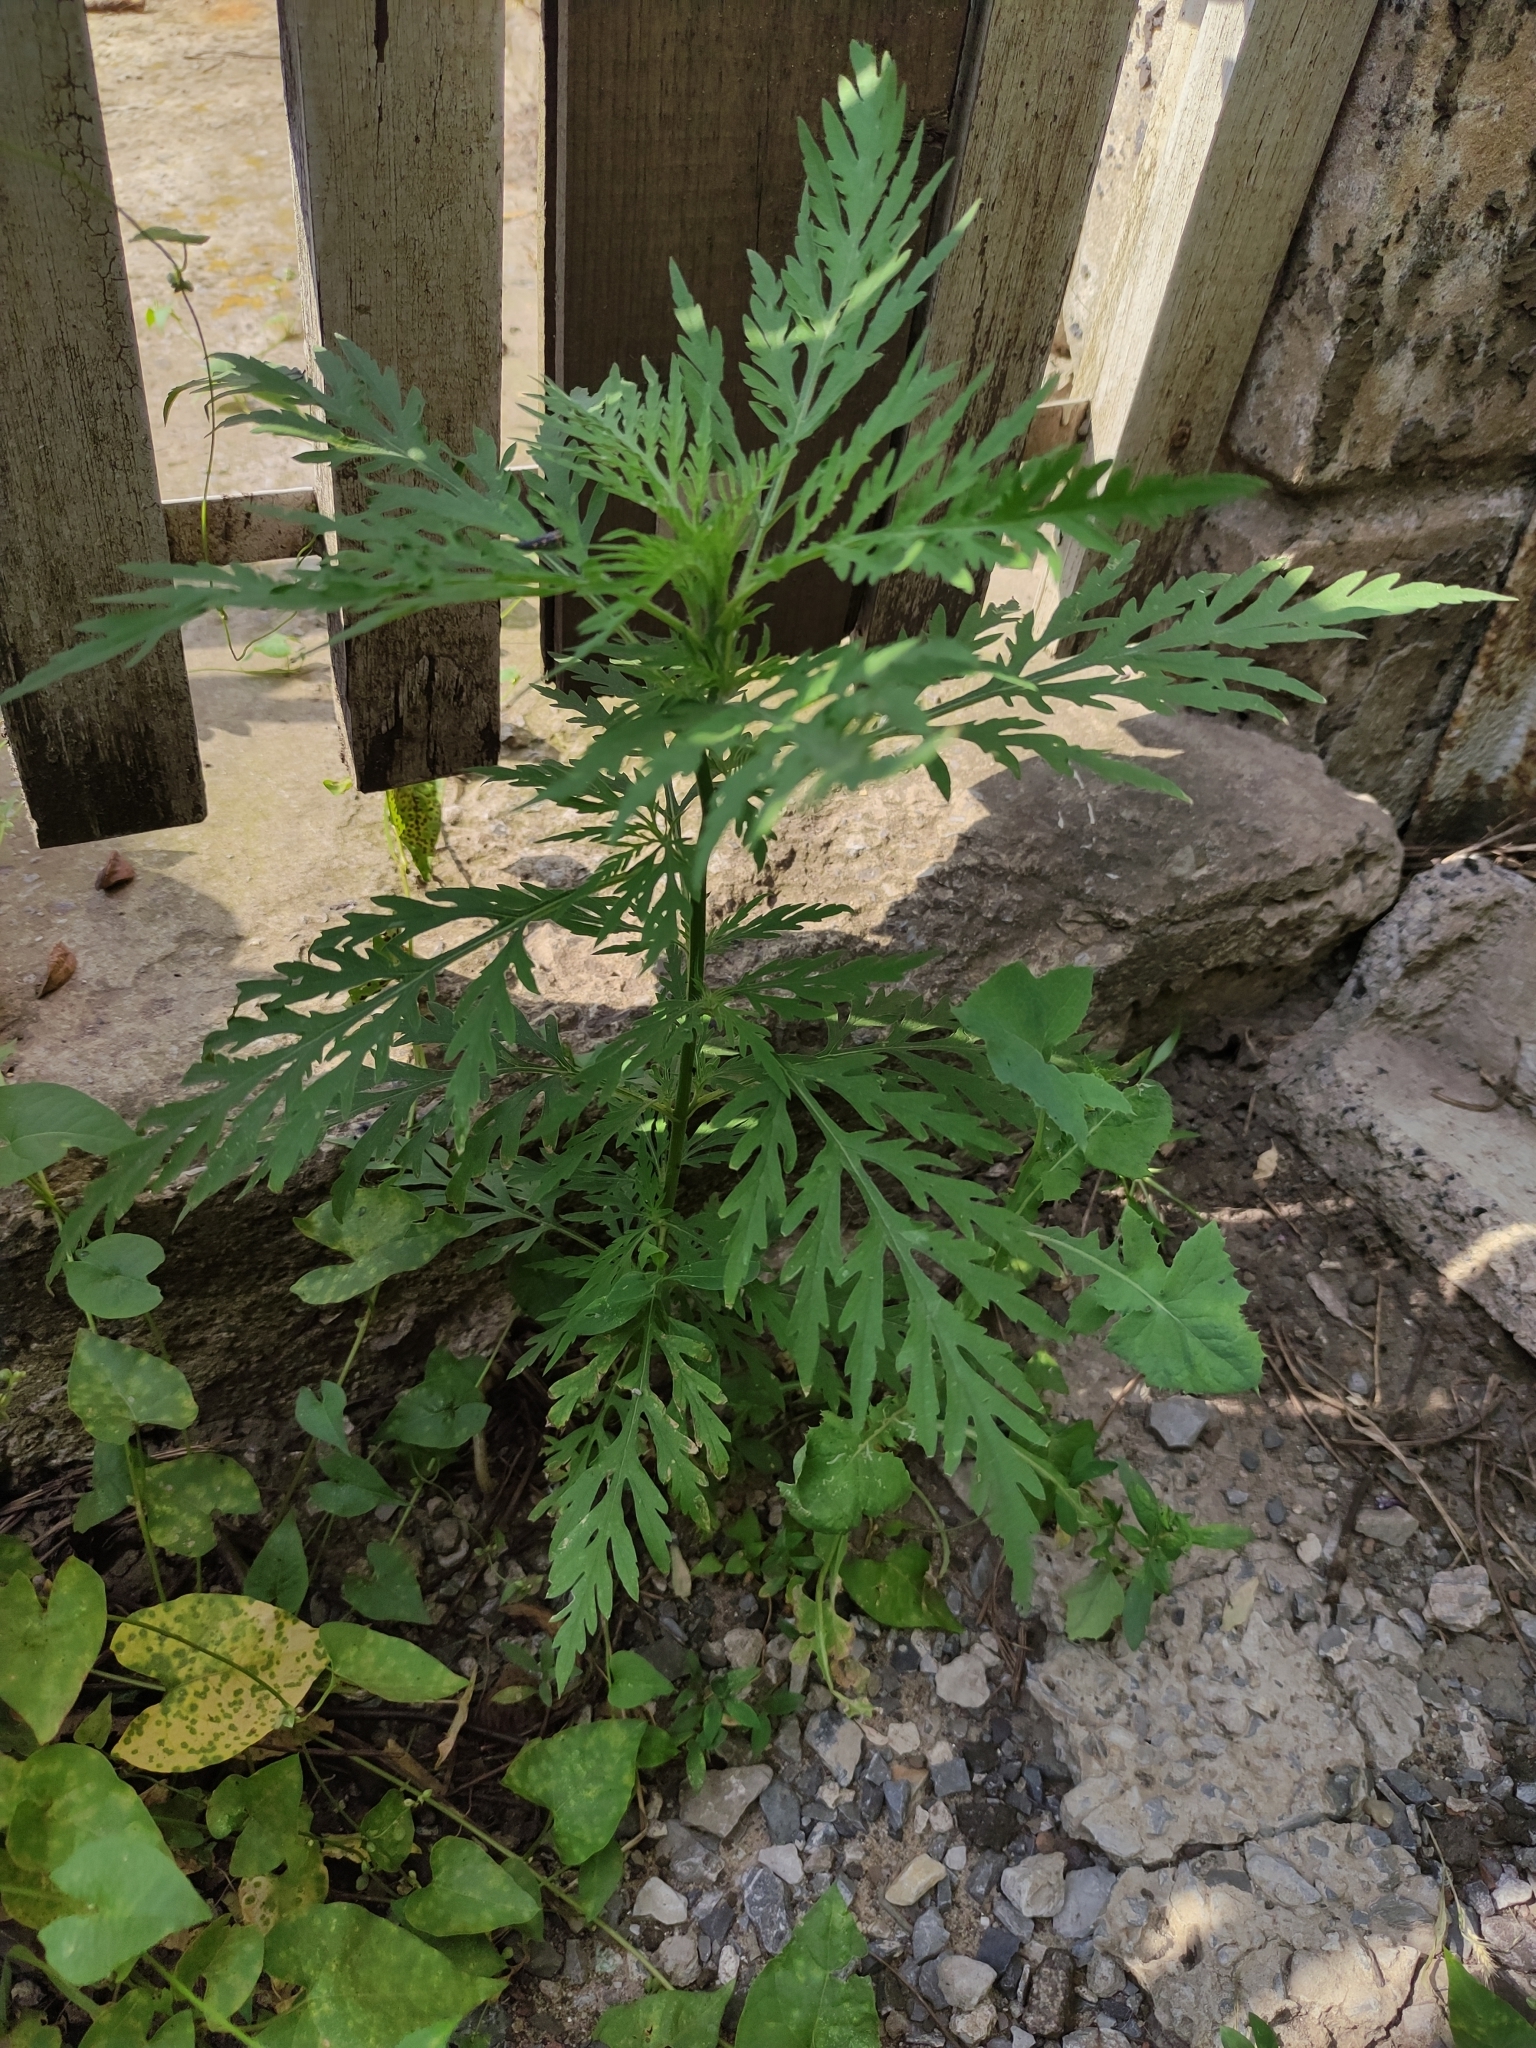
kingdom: Plantae
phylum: Tracheophyta
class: Magnoliopsida
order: Asterales
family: Asteraceae
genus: Ambrosia
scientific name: Ambrosia artemisiifolia
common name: Annual ragweed
